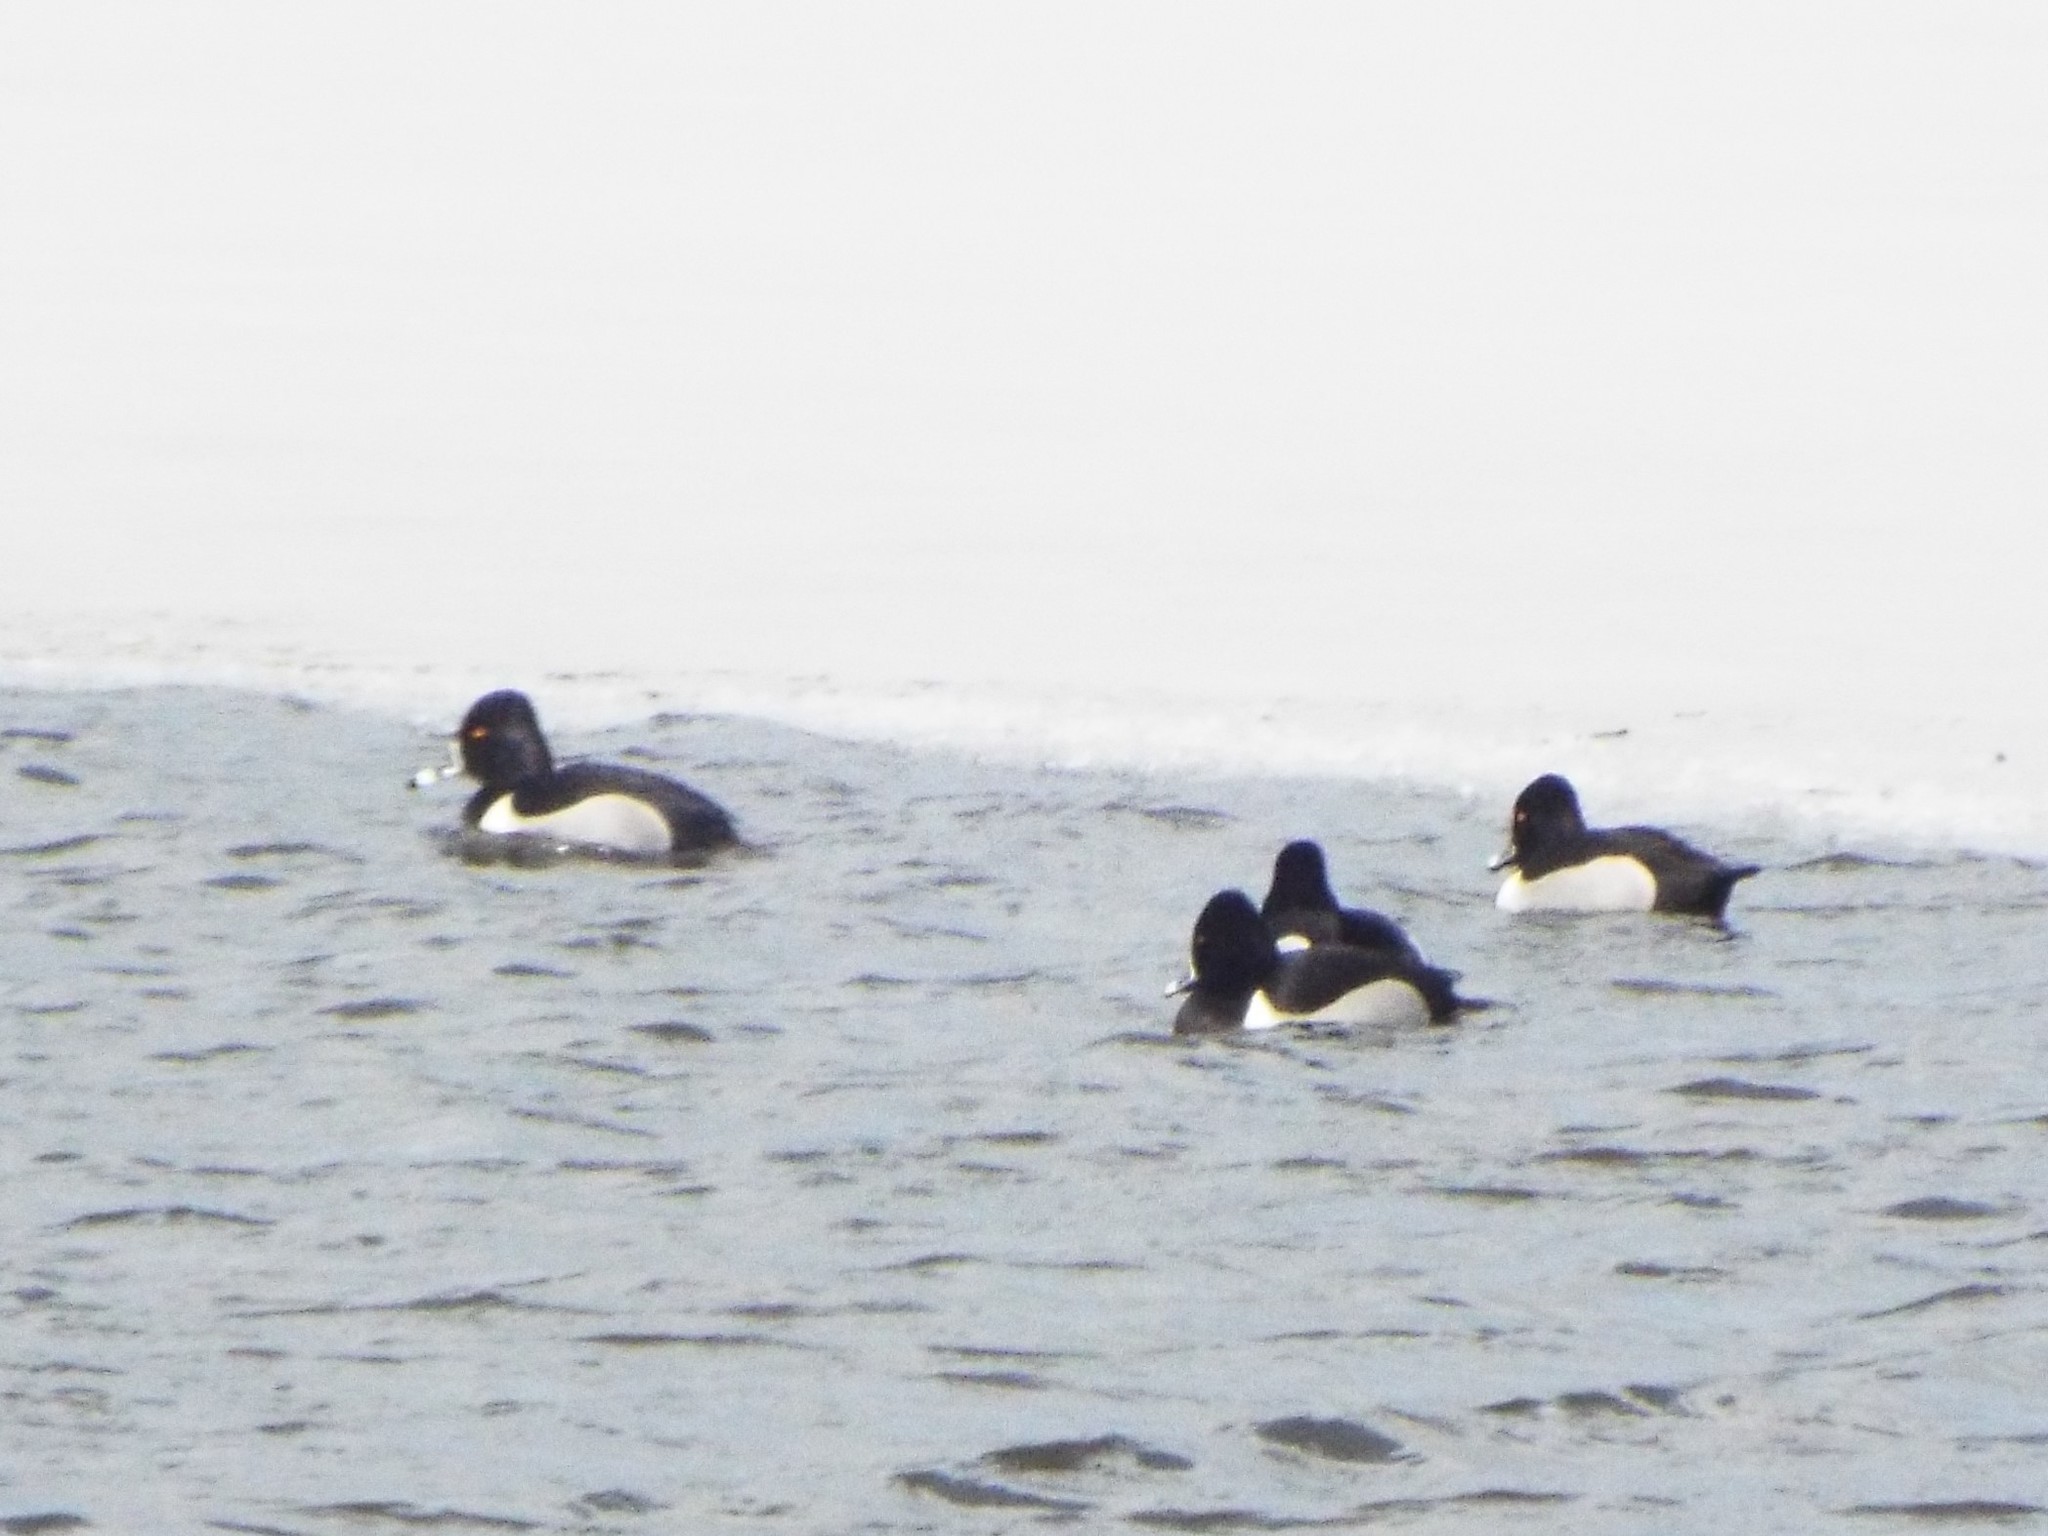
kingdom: Animalia
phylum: Chordata
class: Aves
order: Anseriformes
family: Anatidae
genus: Aythya
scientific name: Aythya collaris
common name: Ring-necked duck
